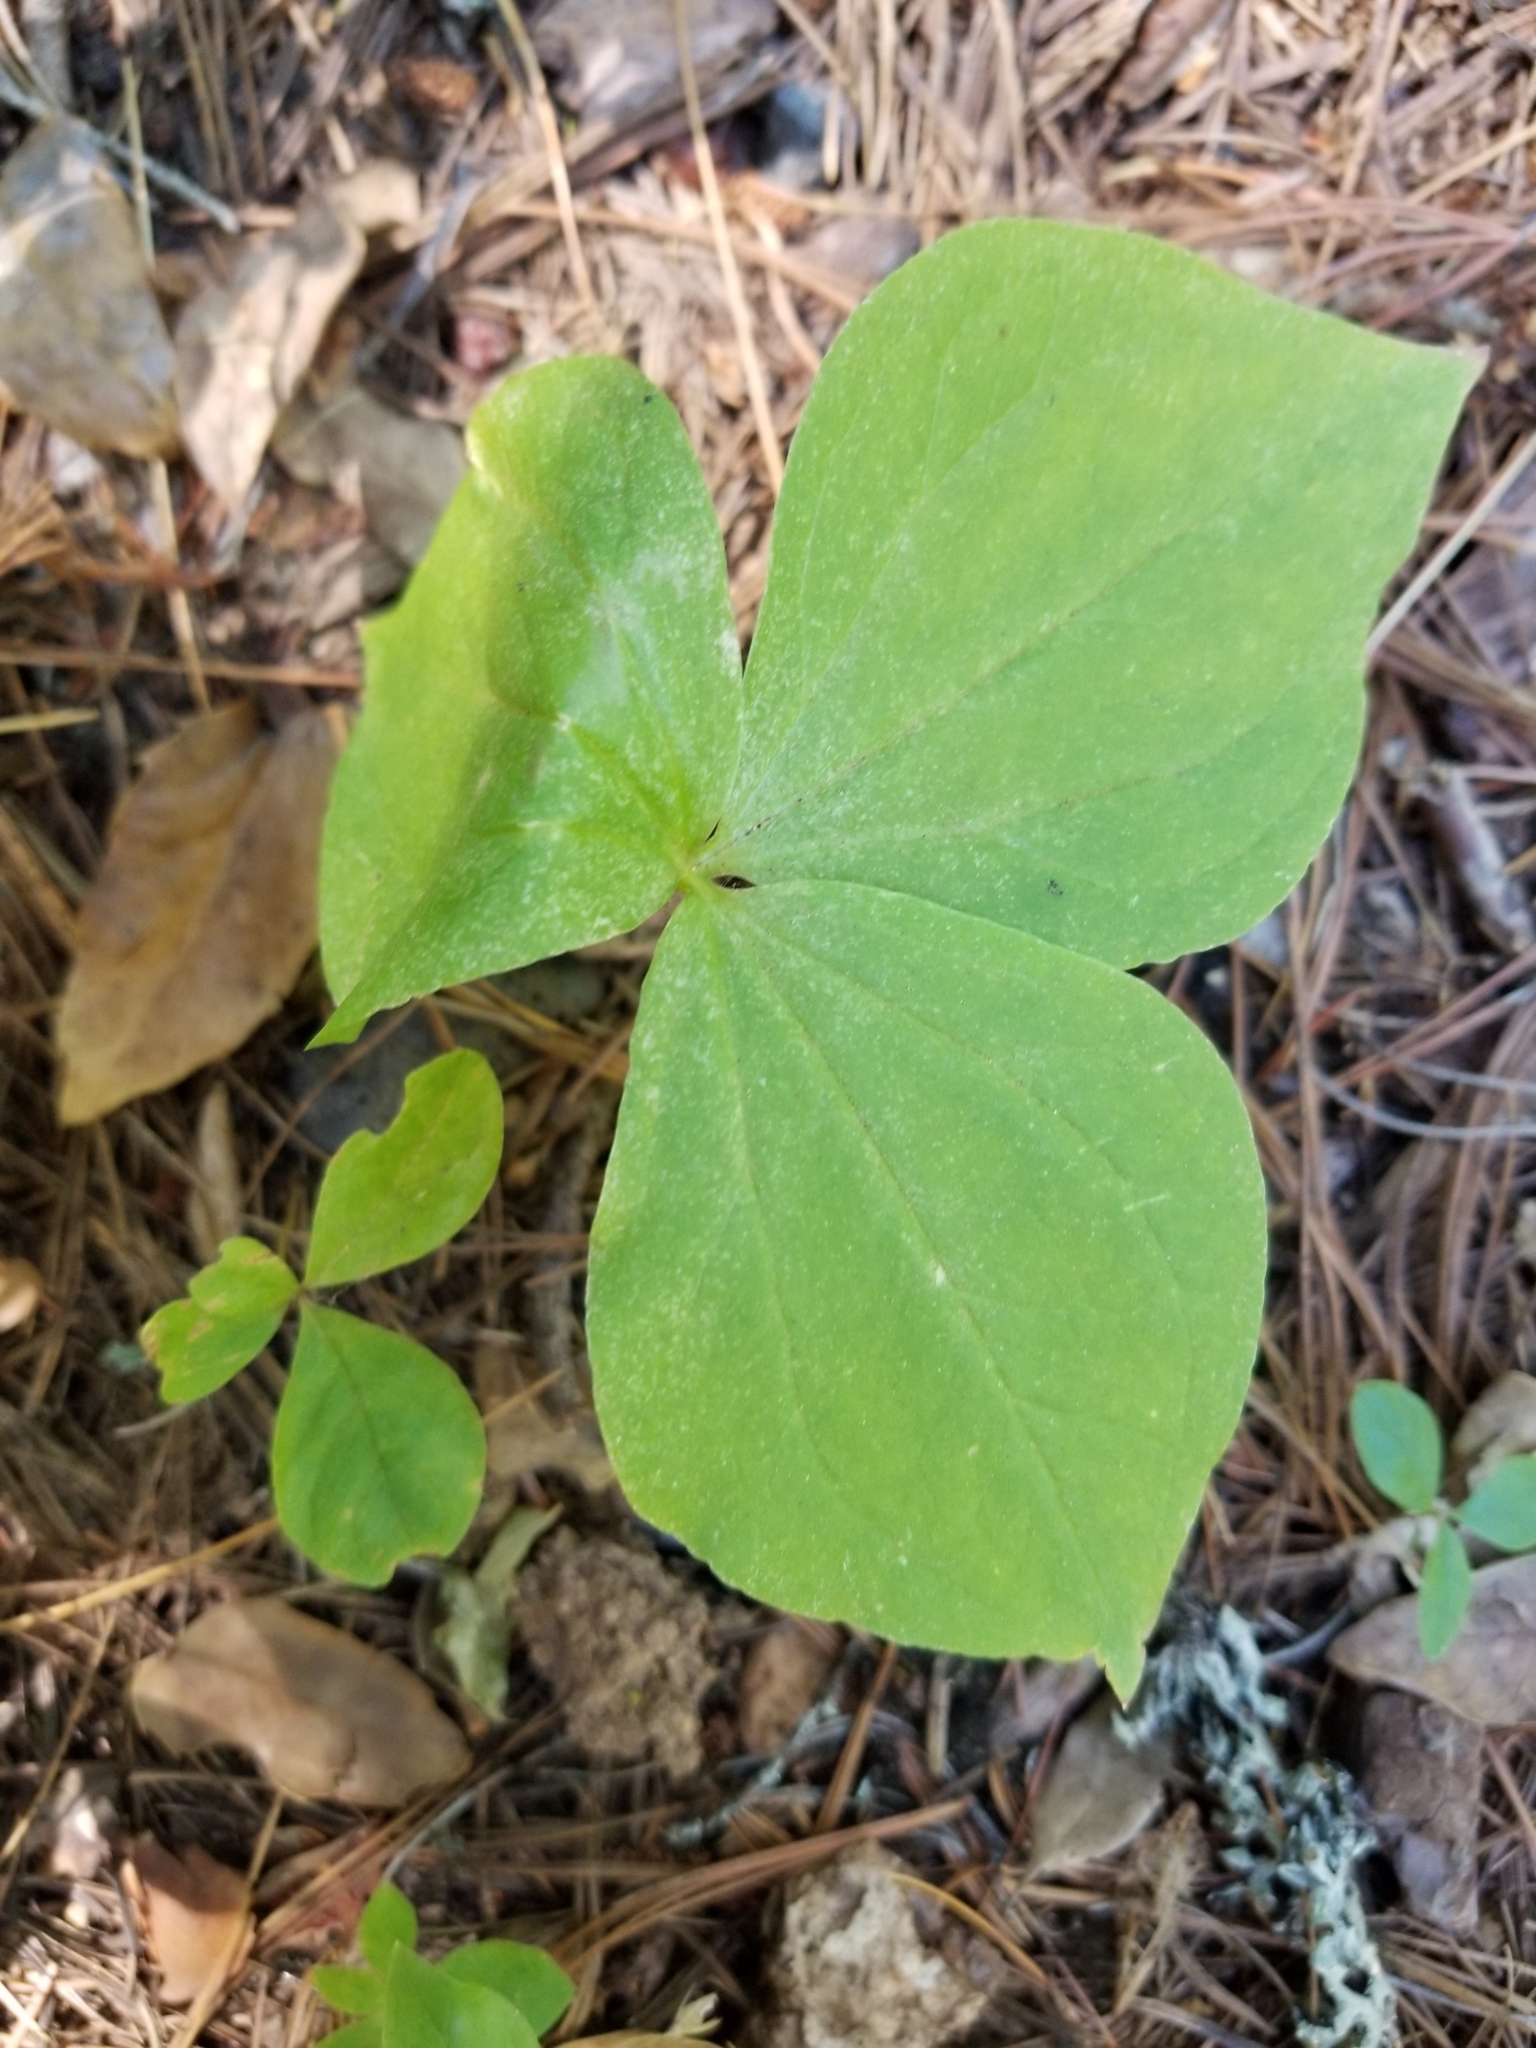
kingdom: Plantae
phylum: Tracheophyta
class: Liliopsida
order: Liliales
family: Melanthiaceae
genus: Trillium
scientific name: Trillium ovatum
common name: Pacific trillium
